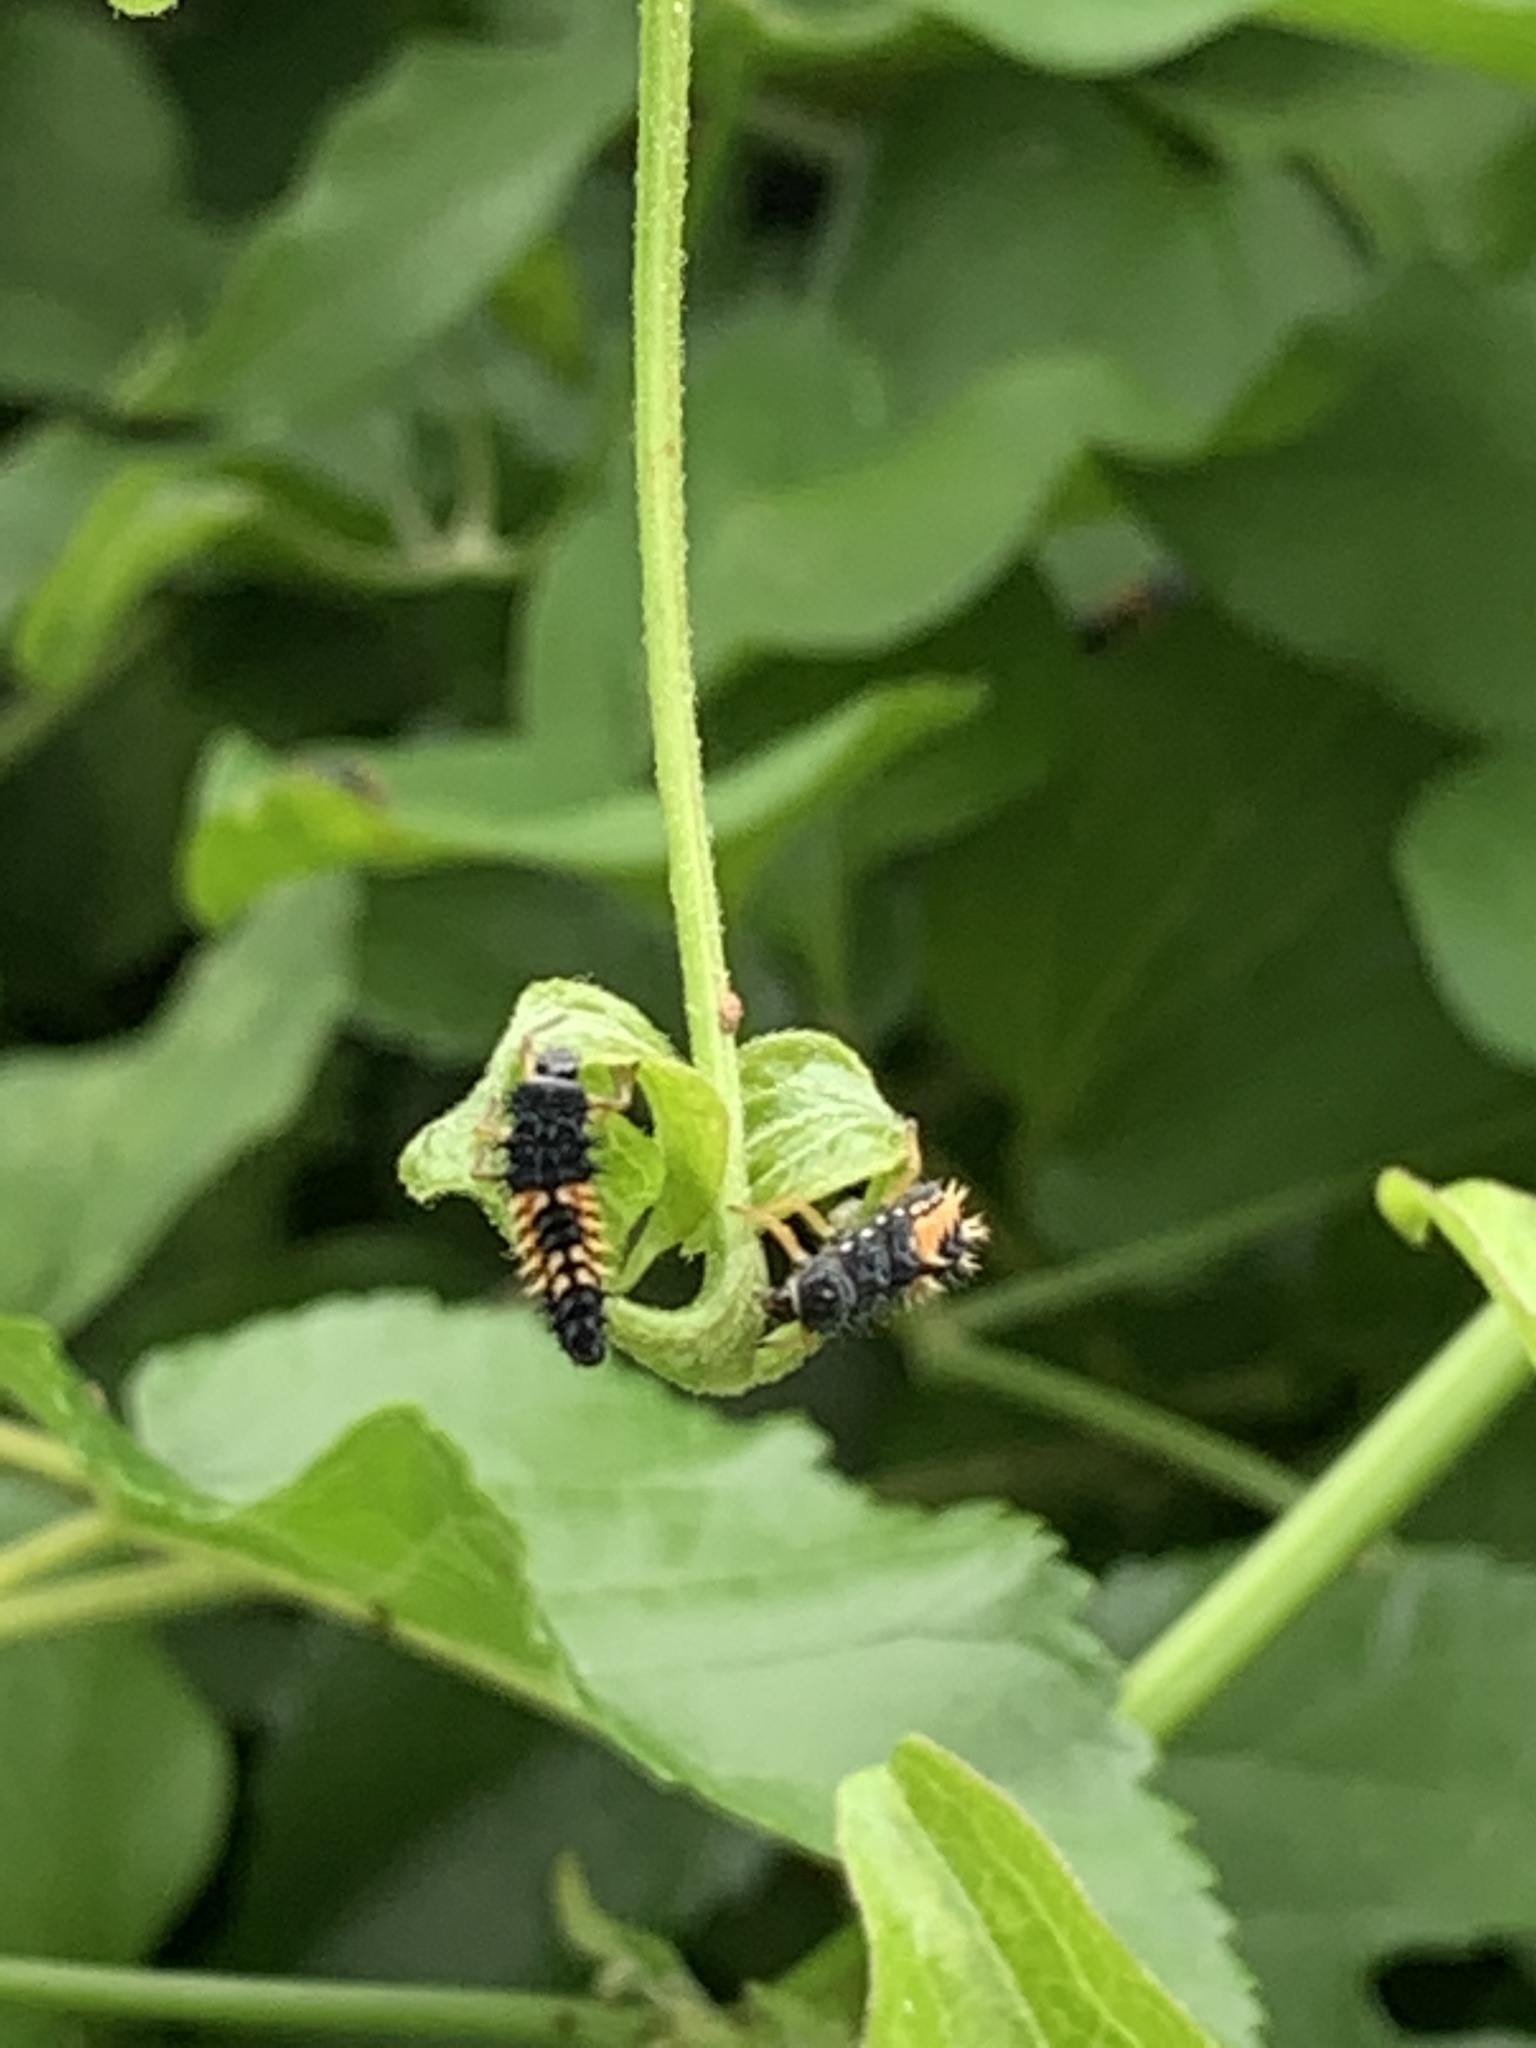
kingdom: Animalia
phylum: Arthropoda
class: Insecta
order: Coleoptera
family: Coccinellidae
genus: Harmonia
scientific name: Harmonia axyridis
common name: Harlequin ladybird
